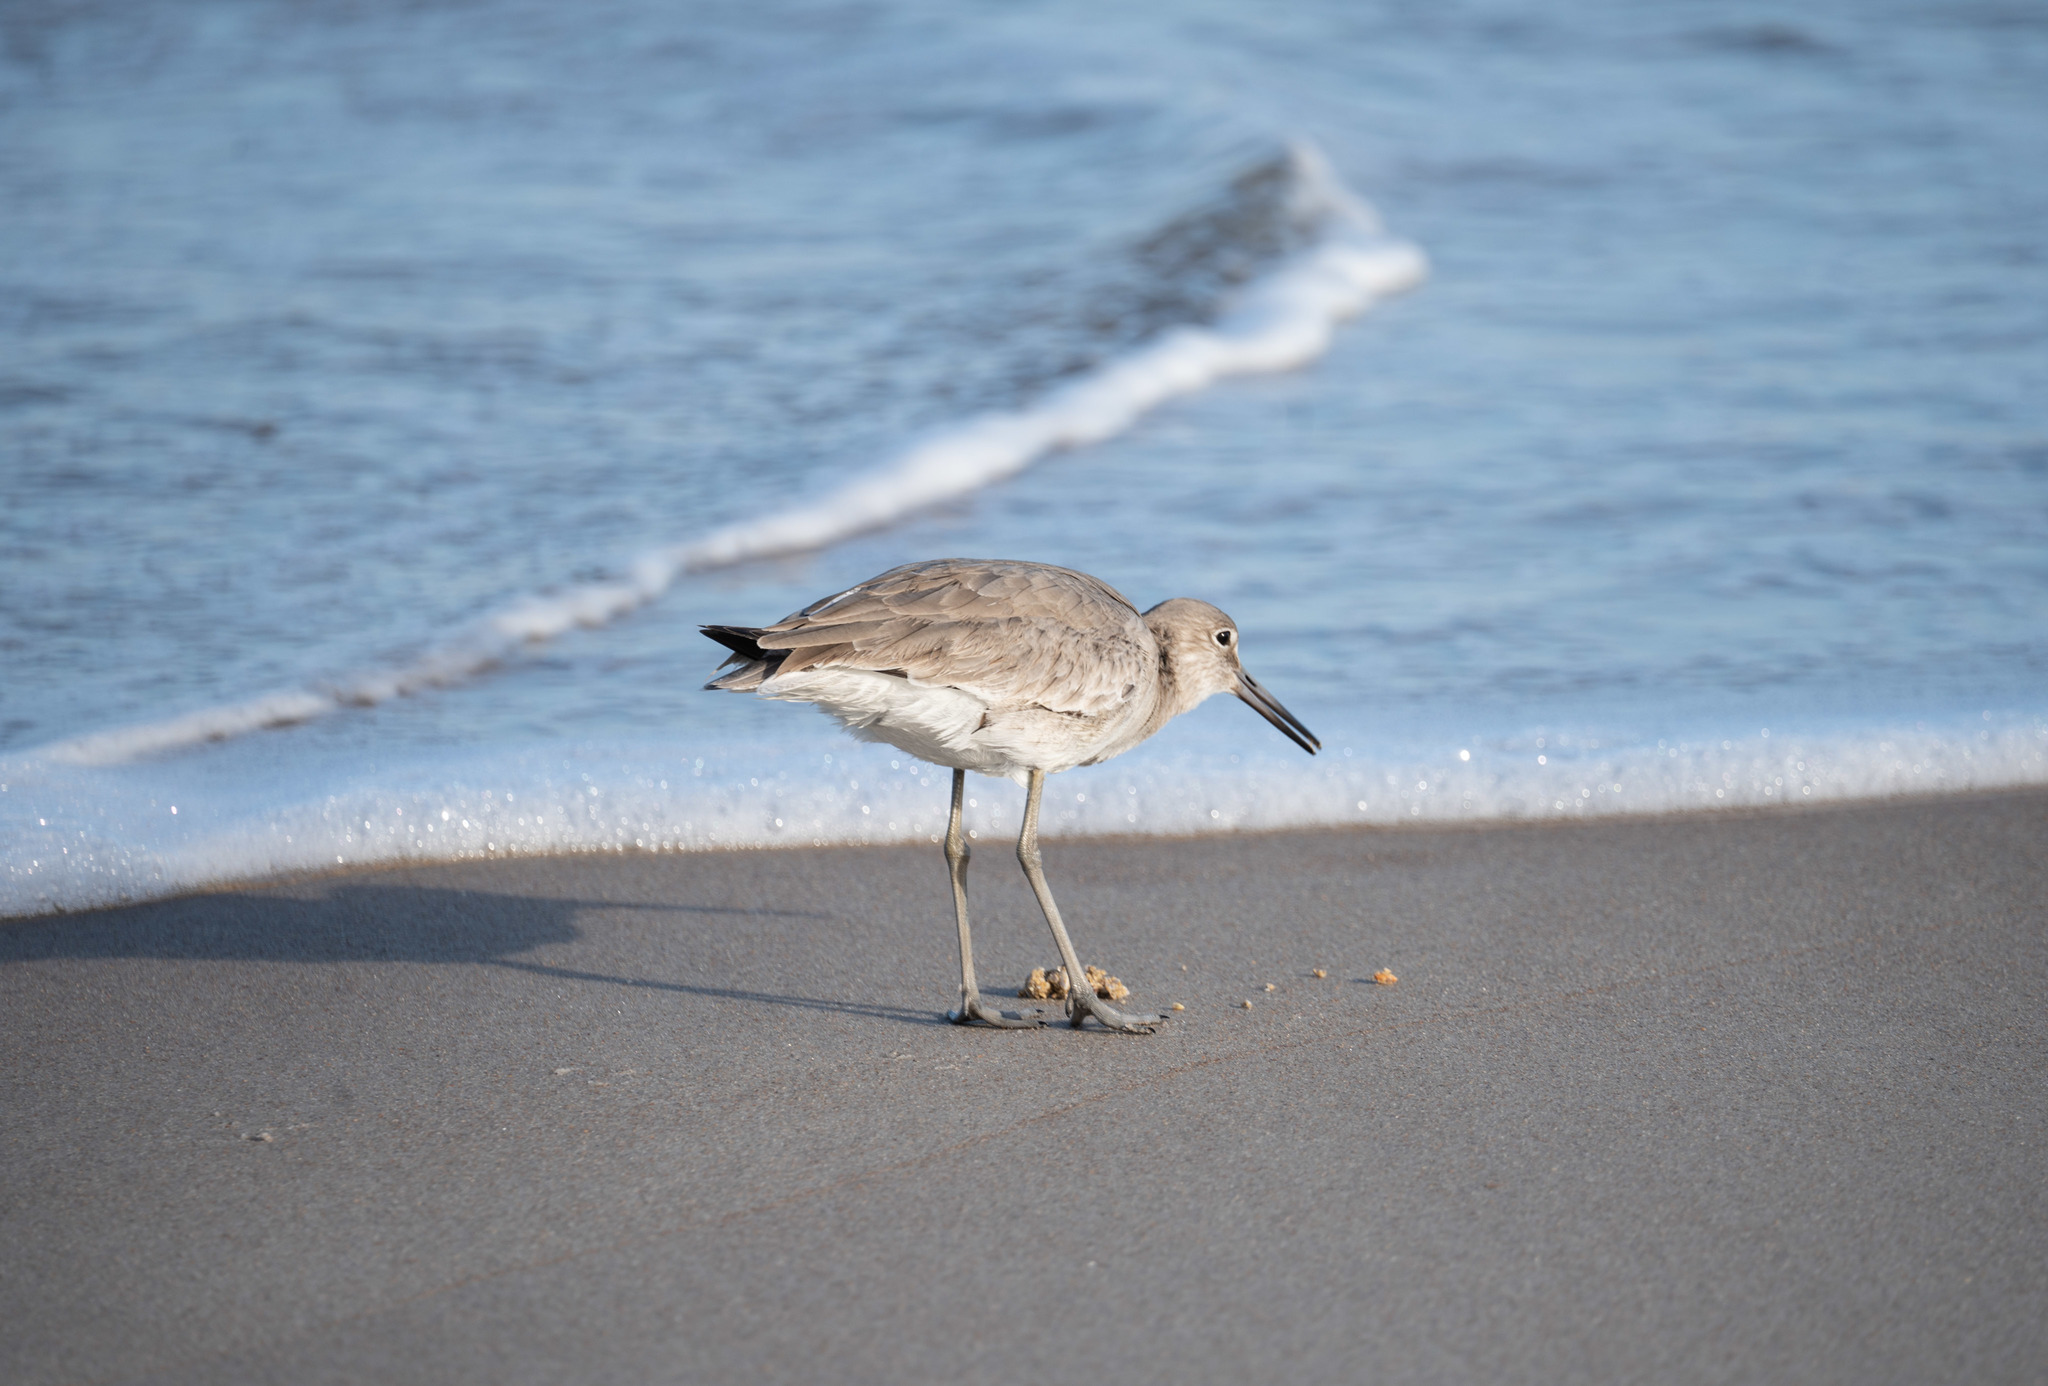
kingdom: Animalia
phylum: Chordata
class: Aves
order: Charadriiformes
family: Scolopacidae
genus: Tringa
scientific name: Tringa semipalmata
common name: Willet
